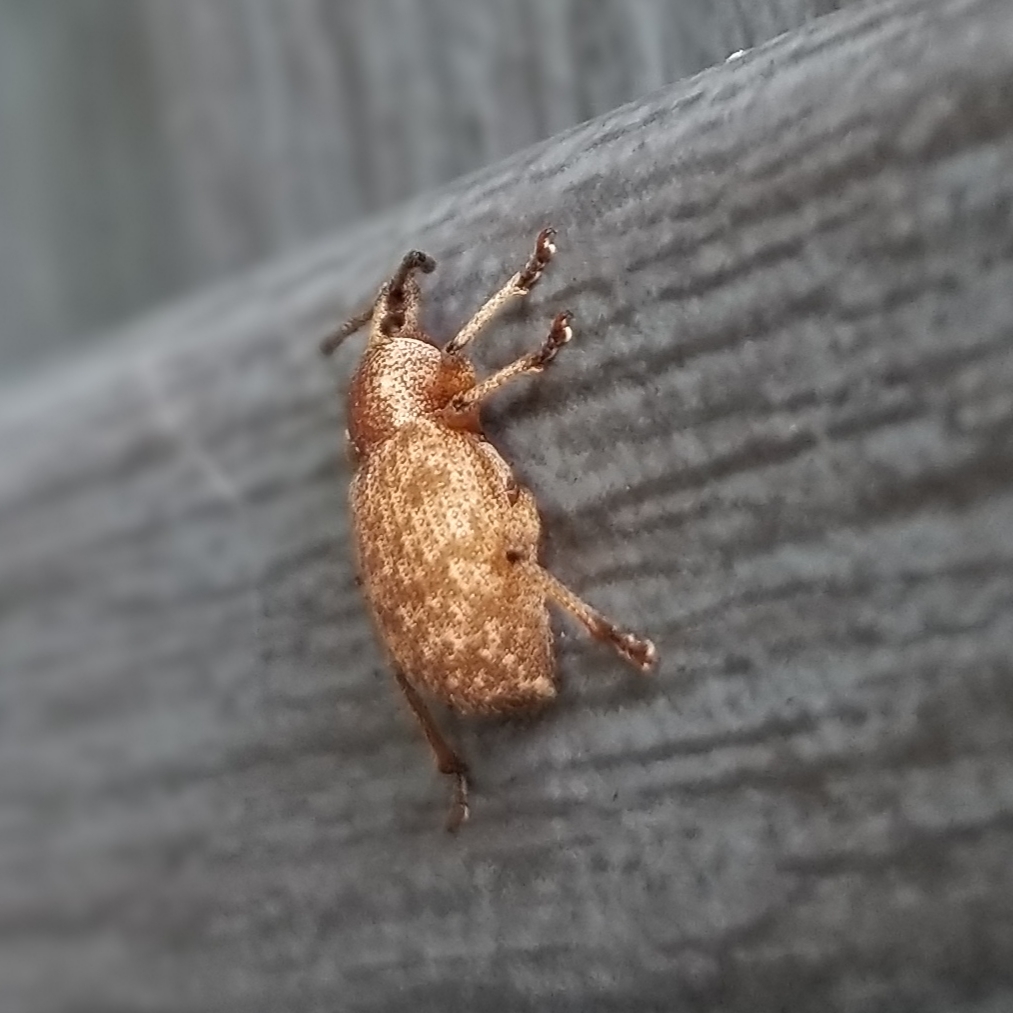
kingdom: Animalia
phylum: Arthropoda
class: Insecta
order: Coleoptera
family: Curculionidae
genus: Otiorhynchus
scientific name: Otiorhynchus singularis
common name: Clay-coloured weevil
